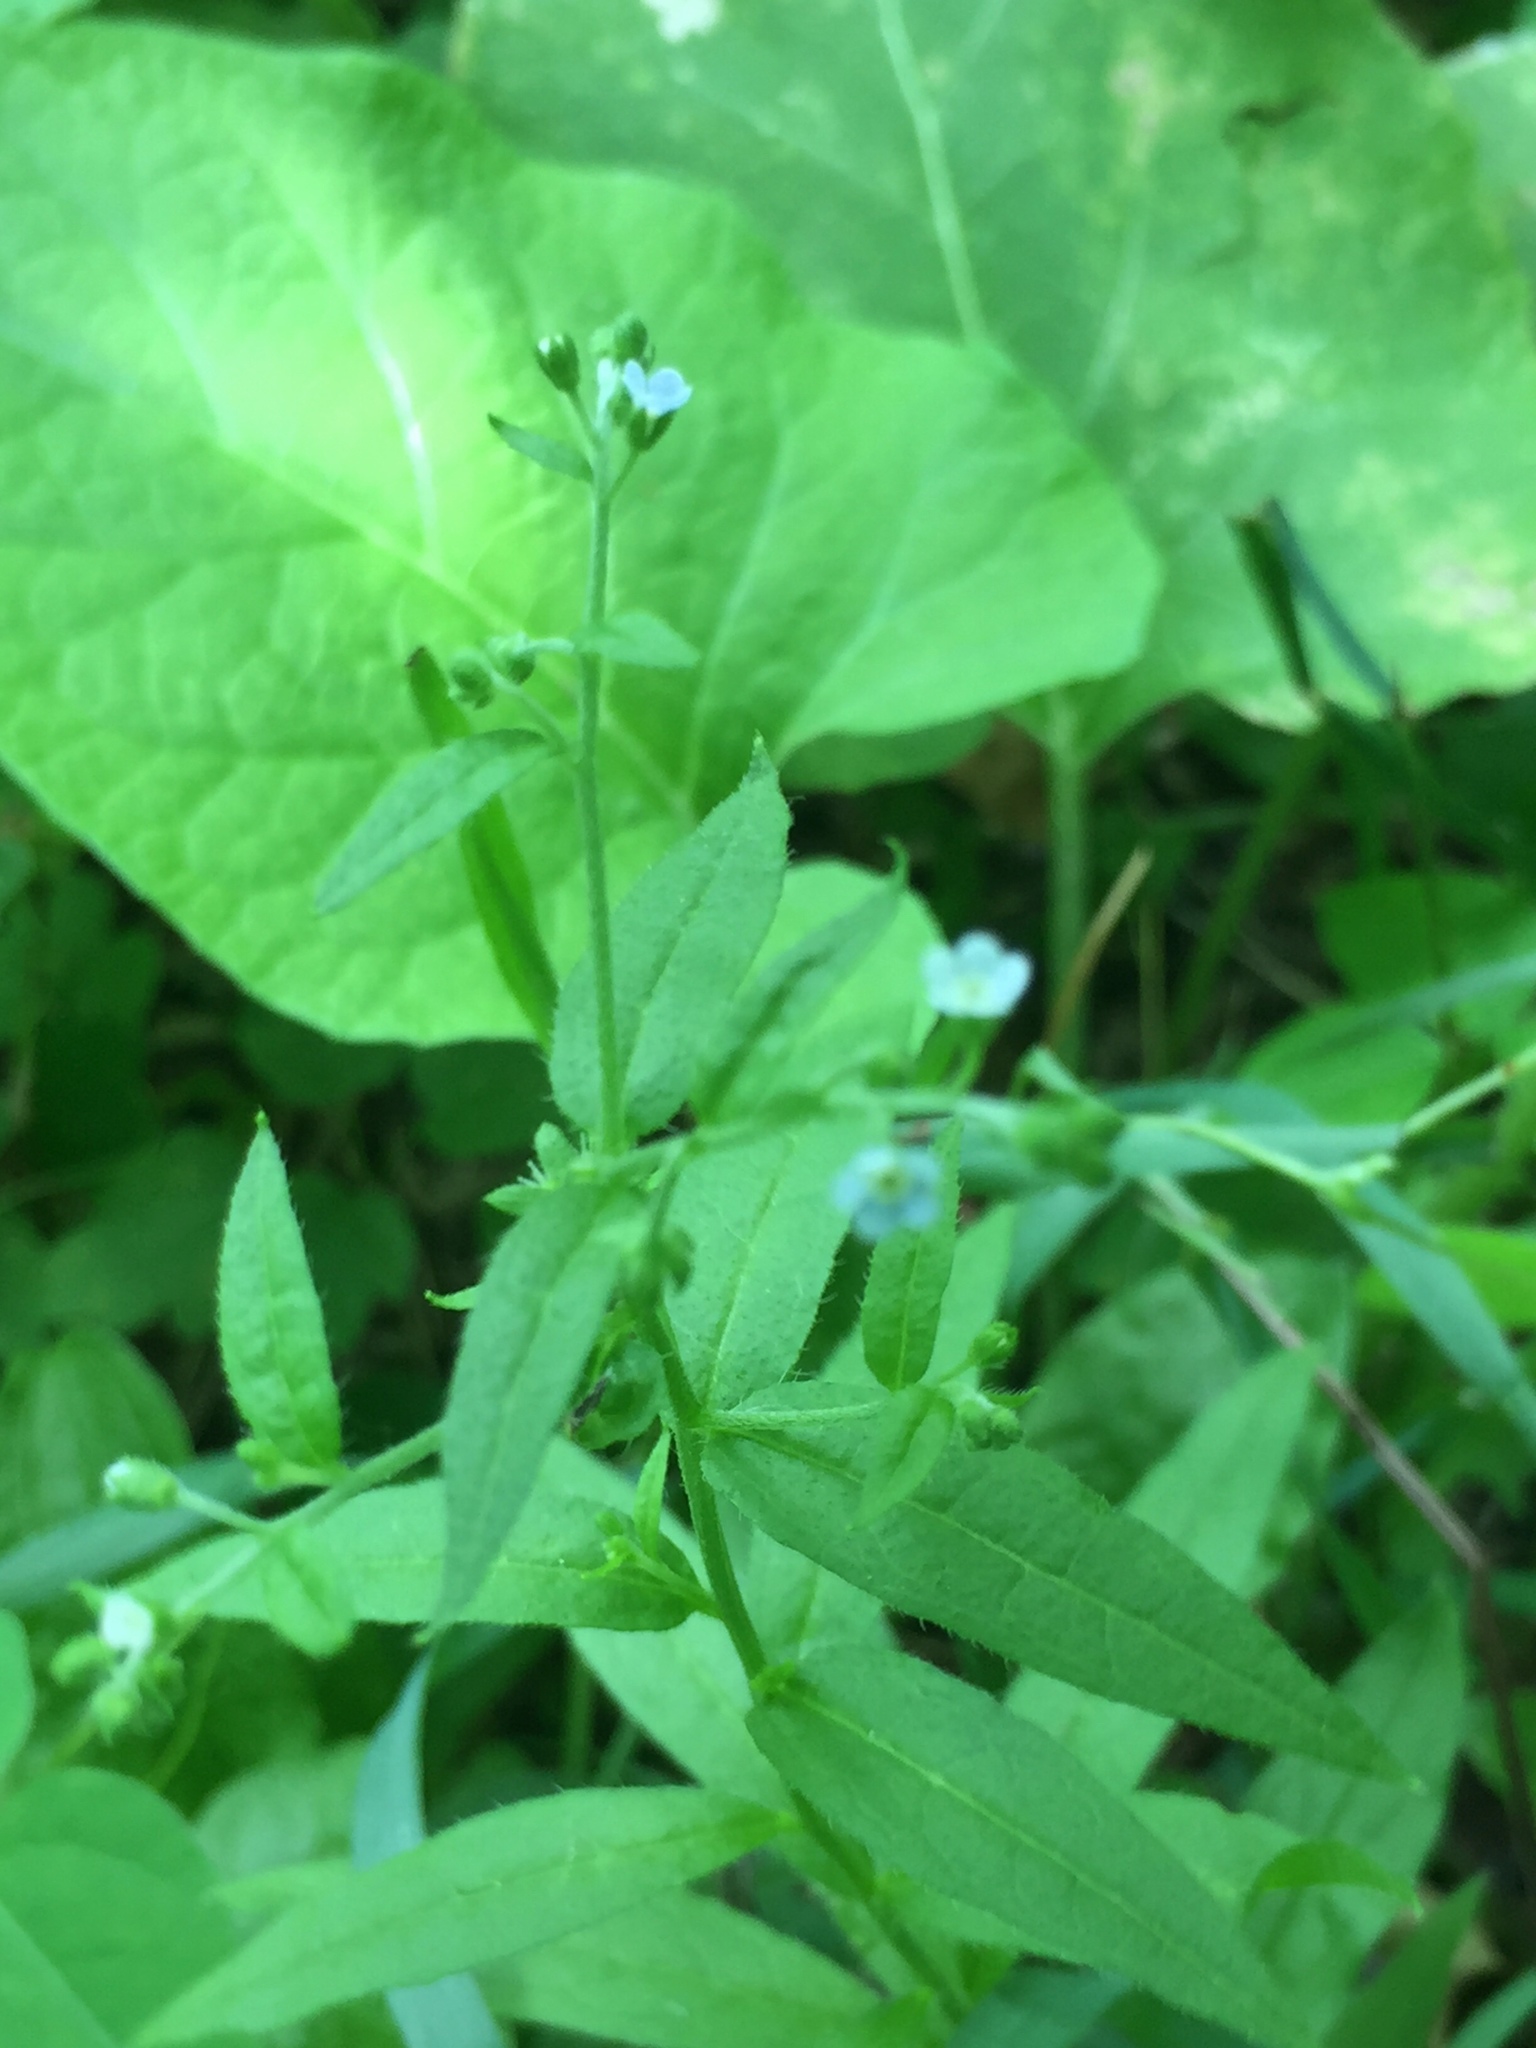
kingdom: Plantae
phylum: Tracheophyta
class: Magnoliopsida
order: Boraginales
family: Boraginaceae
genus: Hackelia
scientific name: Hackelia deflexa
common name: Nodding stickseed
